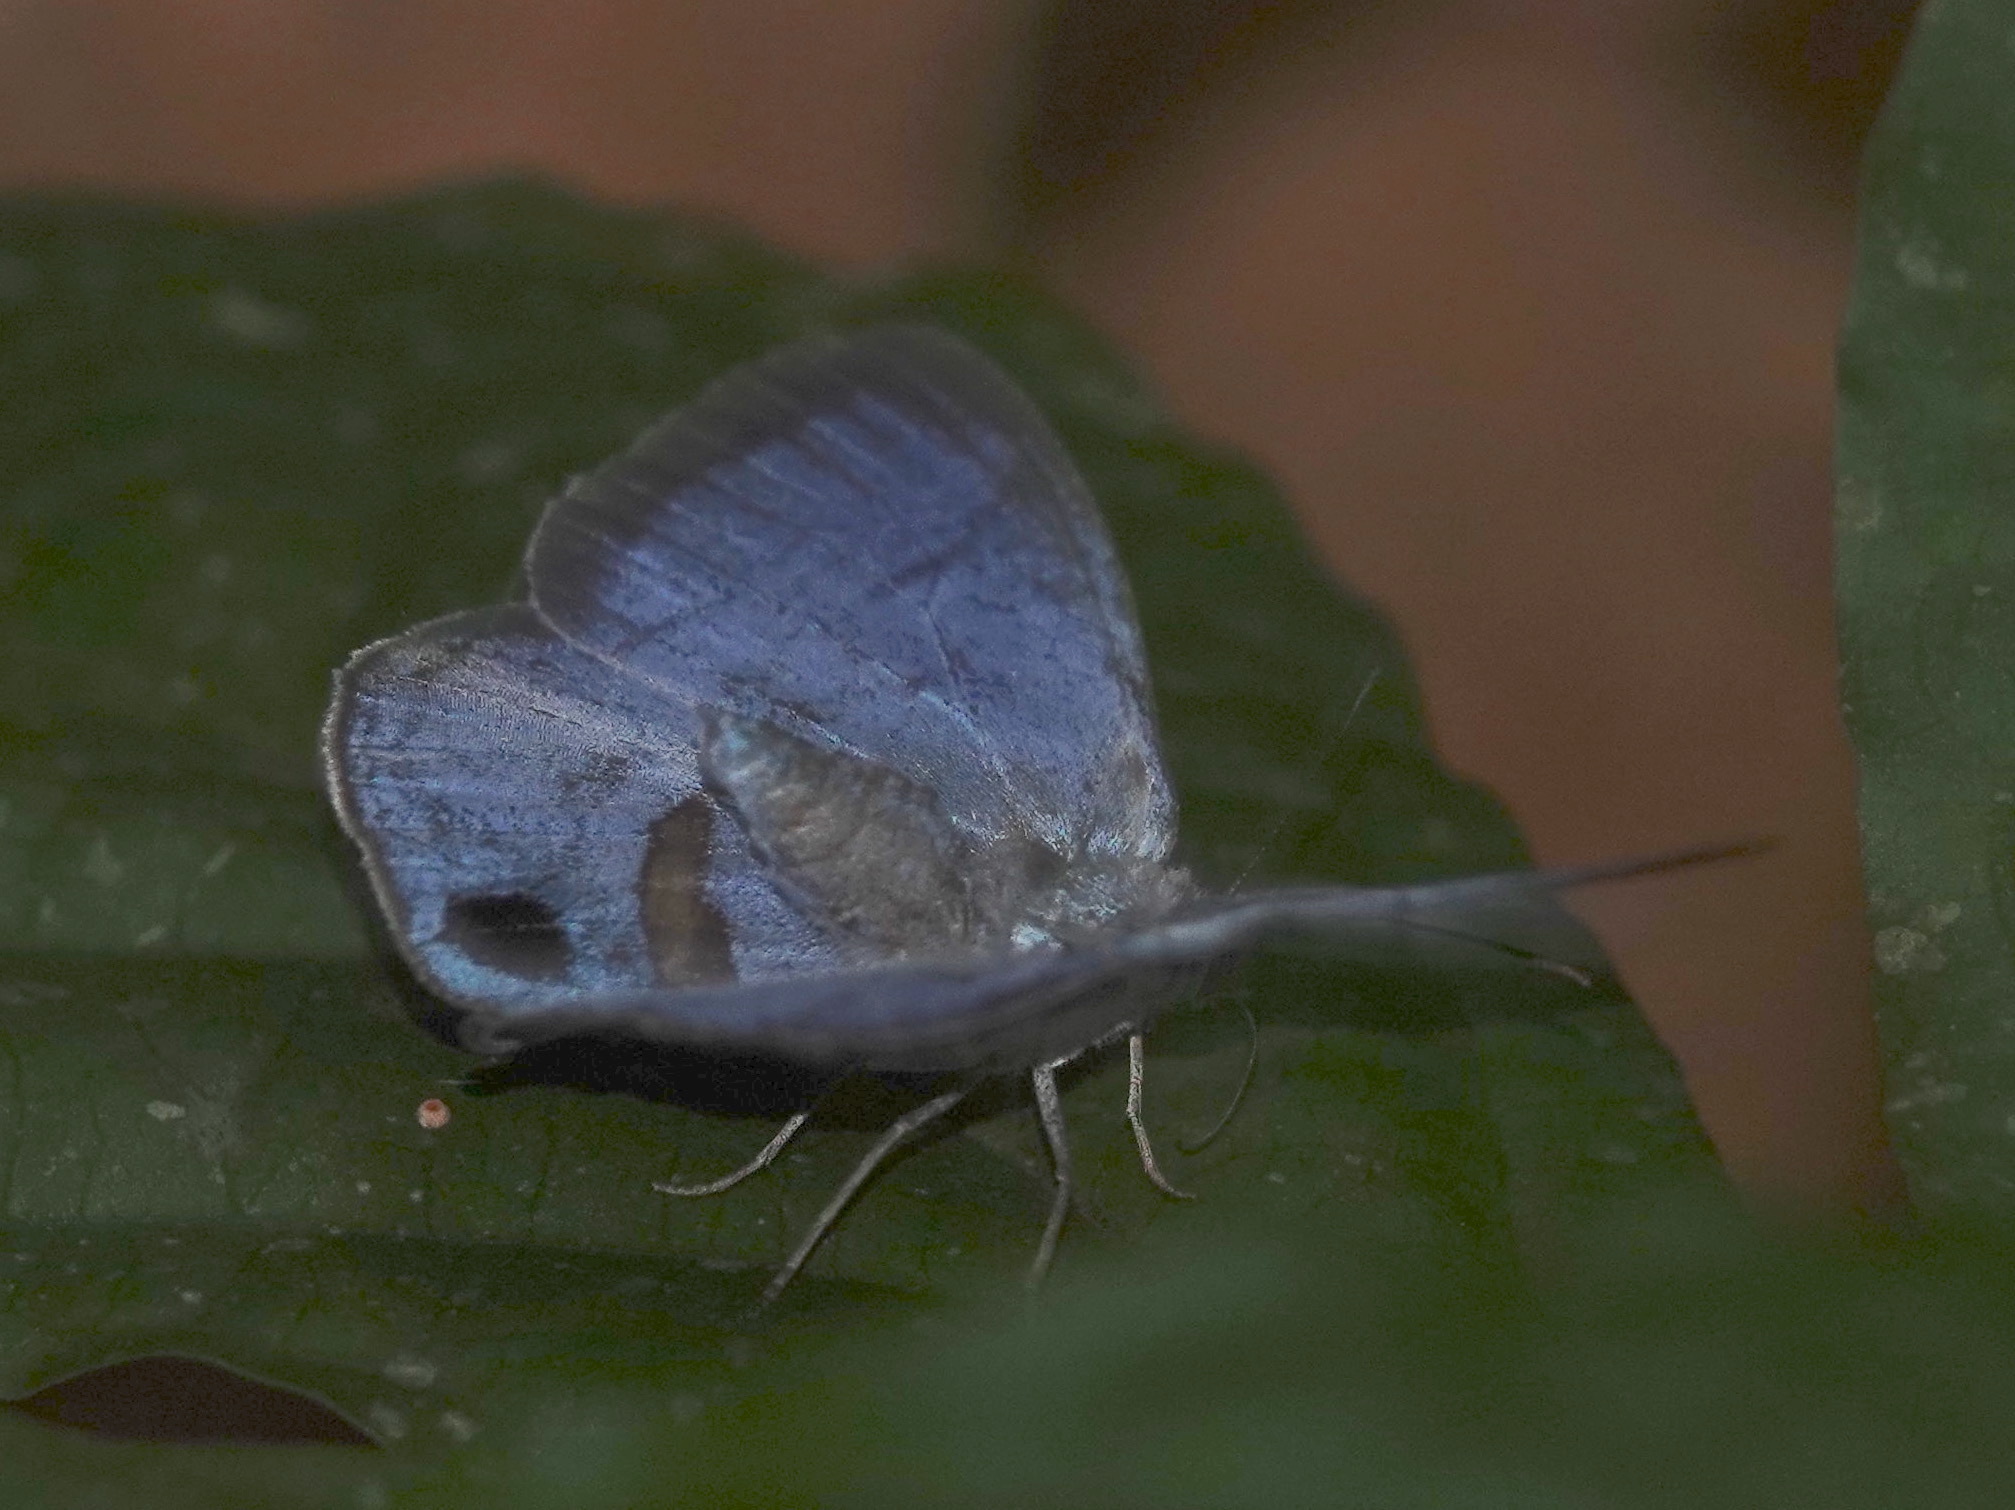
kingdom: Animalia
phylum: Arthropoda
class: Insecta
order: Lepidoptera
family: Nymphalidae
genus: Caeruleuptychia
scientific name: Caeruleuptychia aetherialis
